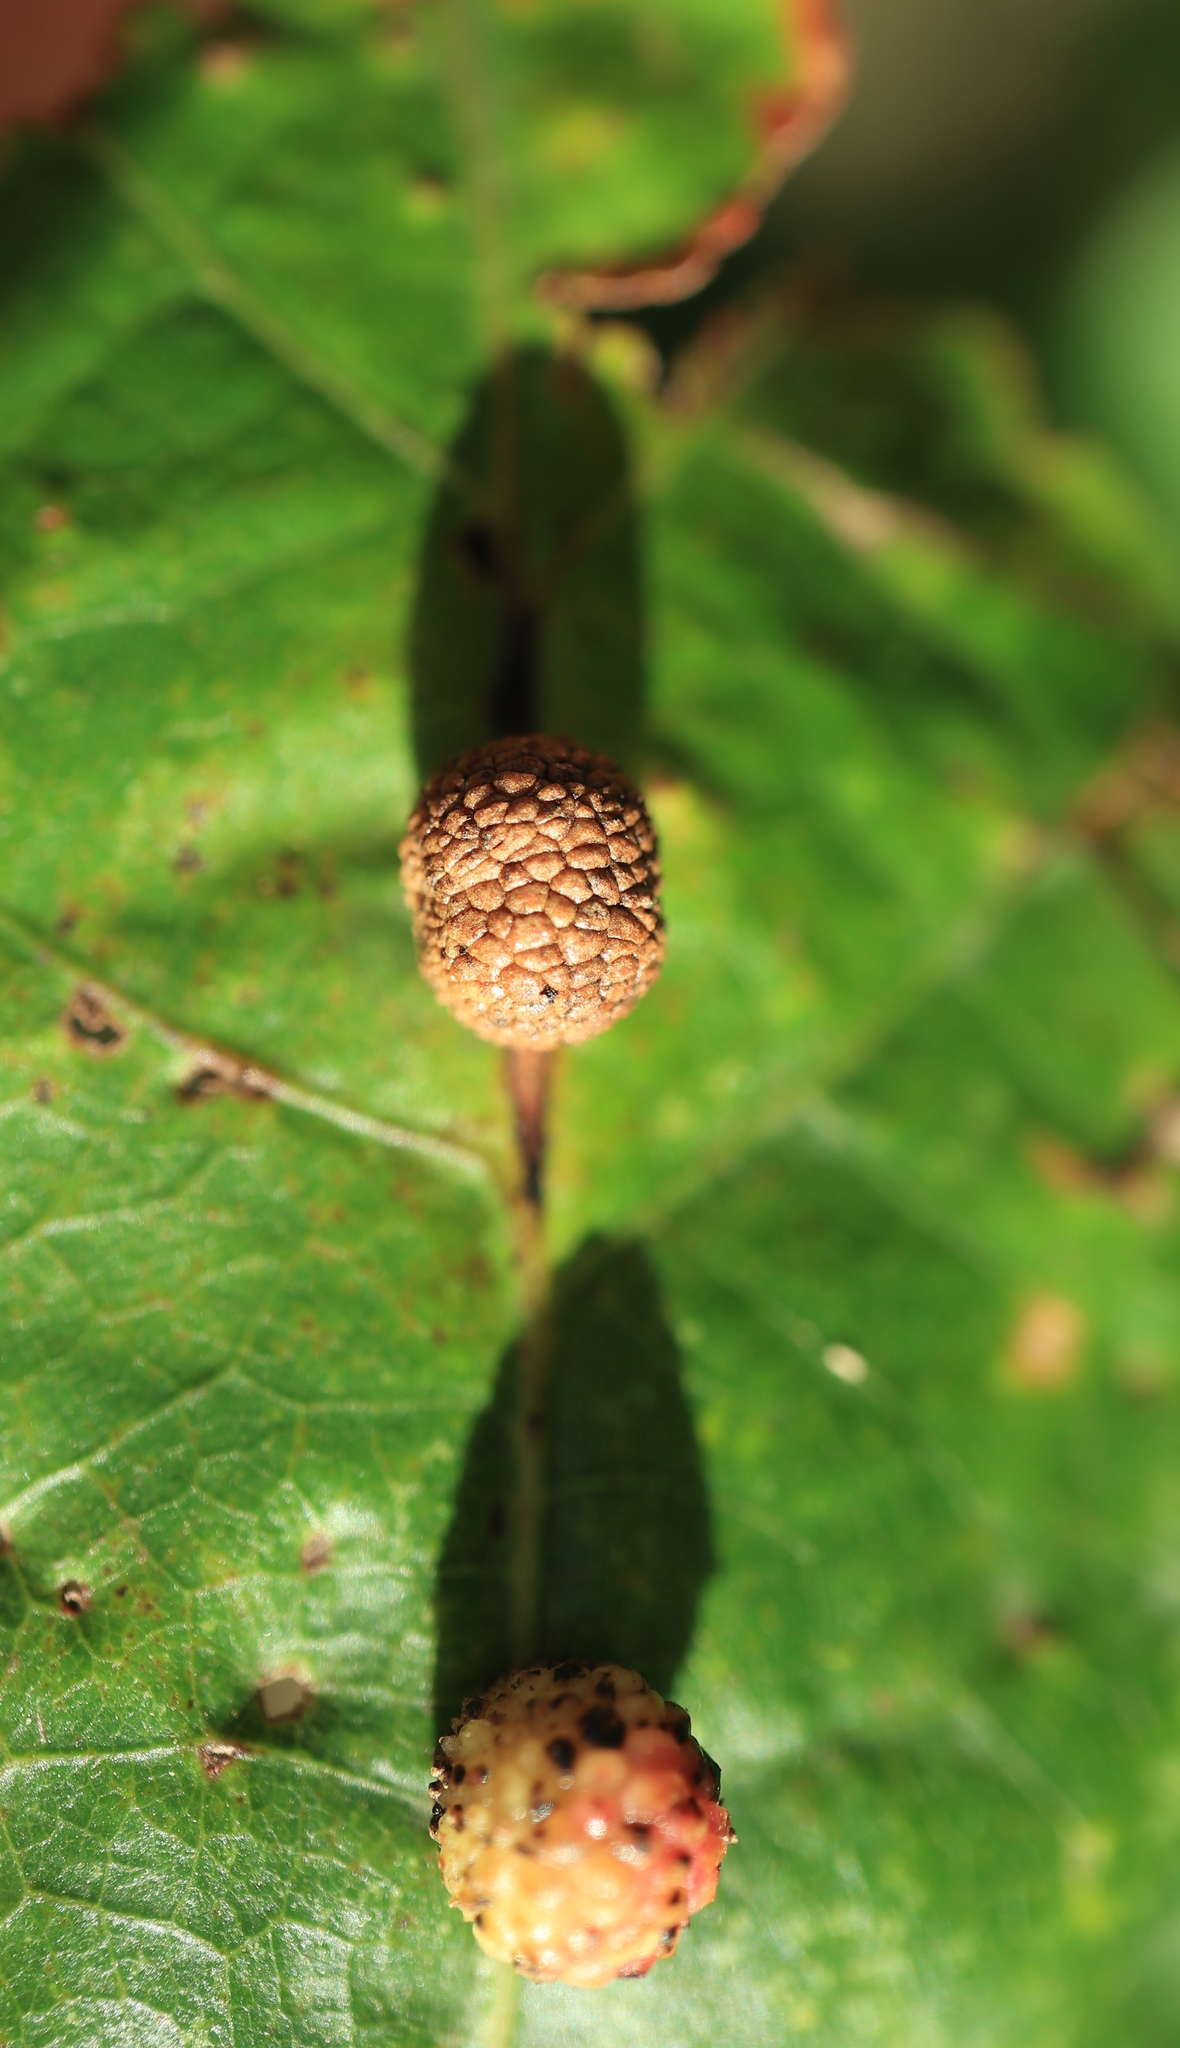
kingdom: Animalia
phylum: Arthropoda
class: Insecta
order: Hymenoptera
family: Cynipidae
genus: Acraspis
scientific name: Acraspis
